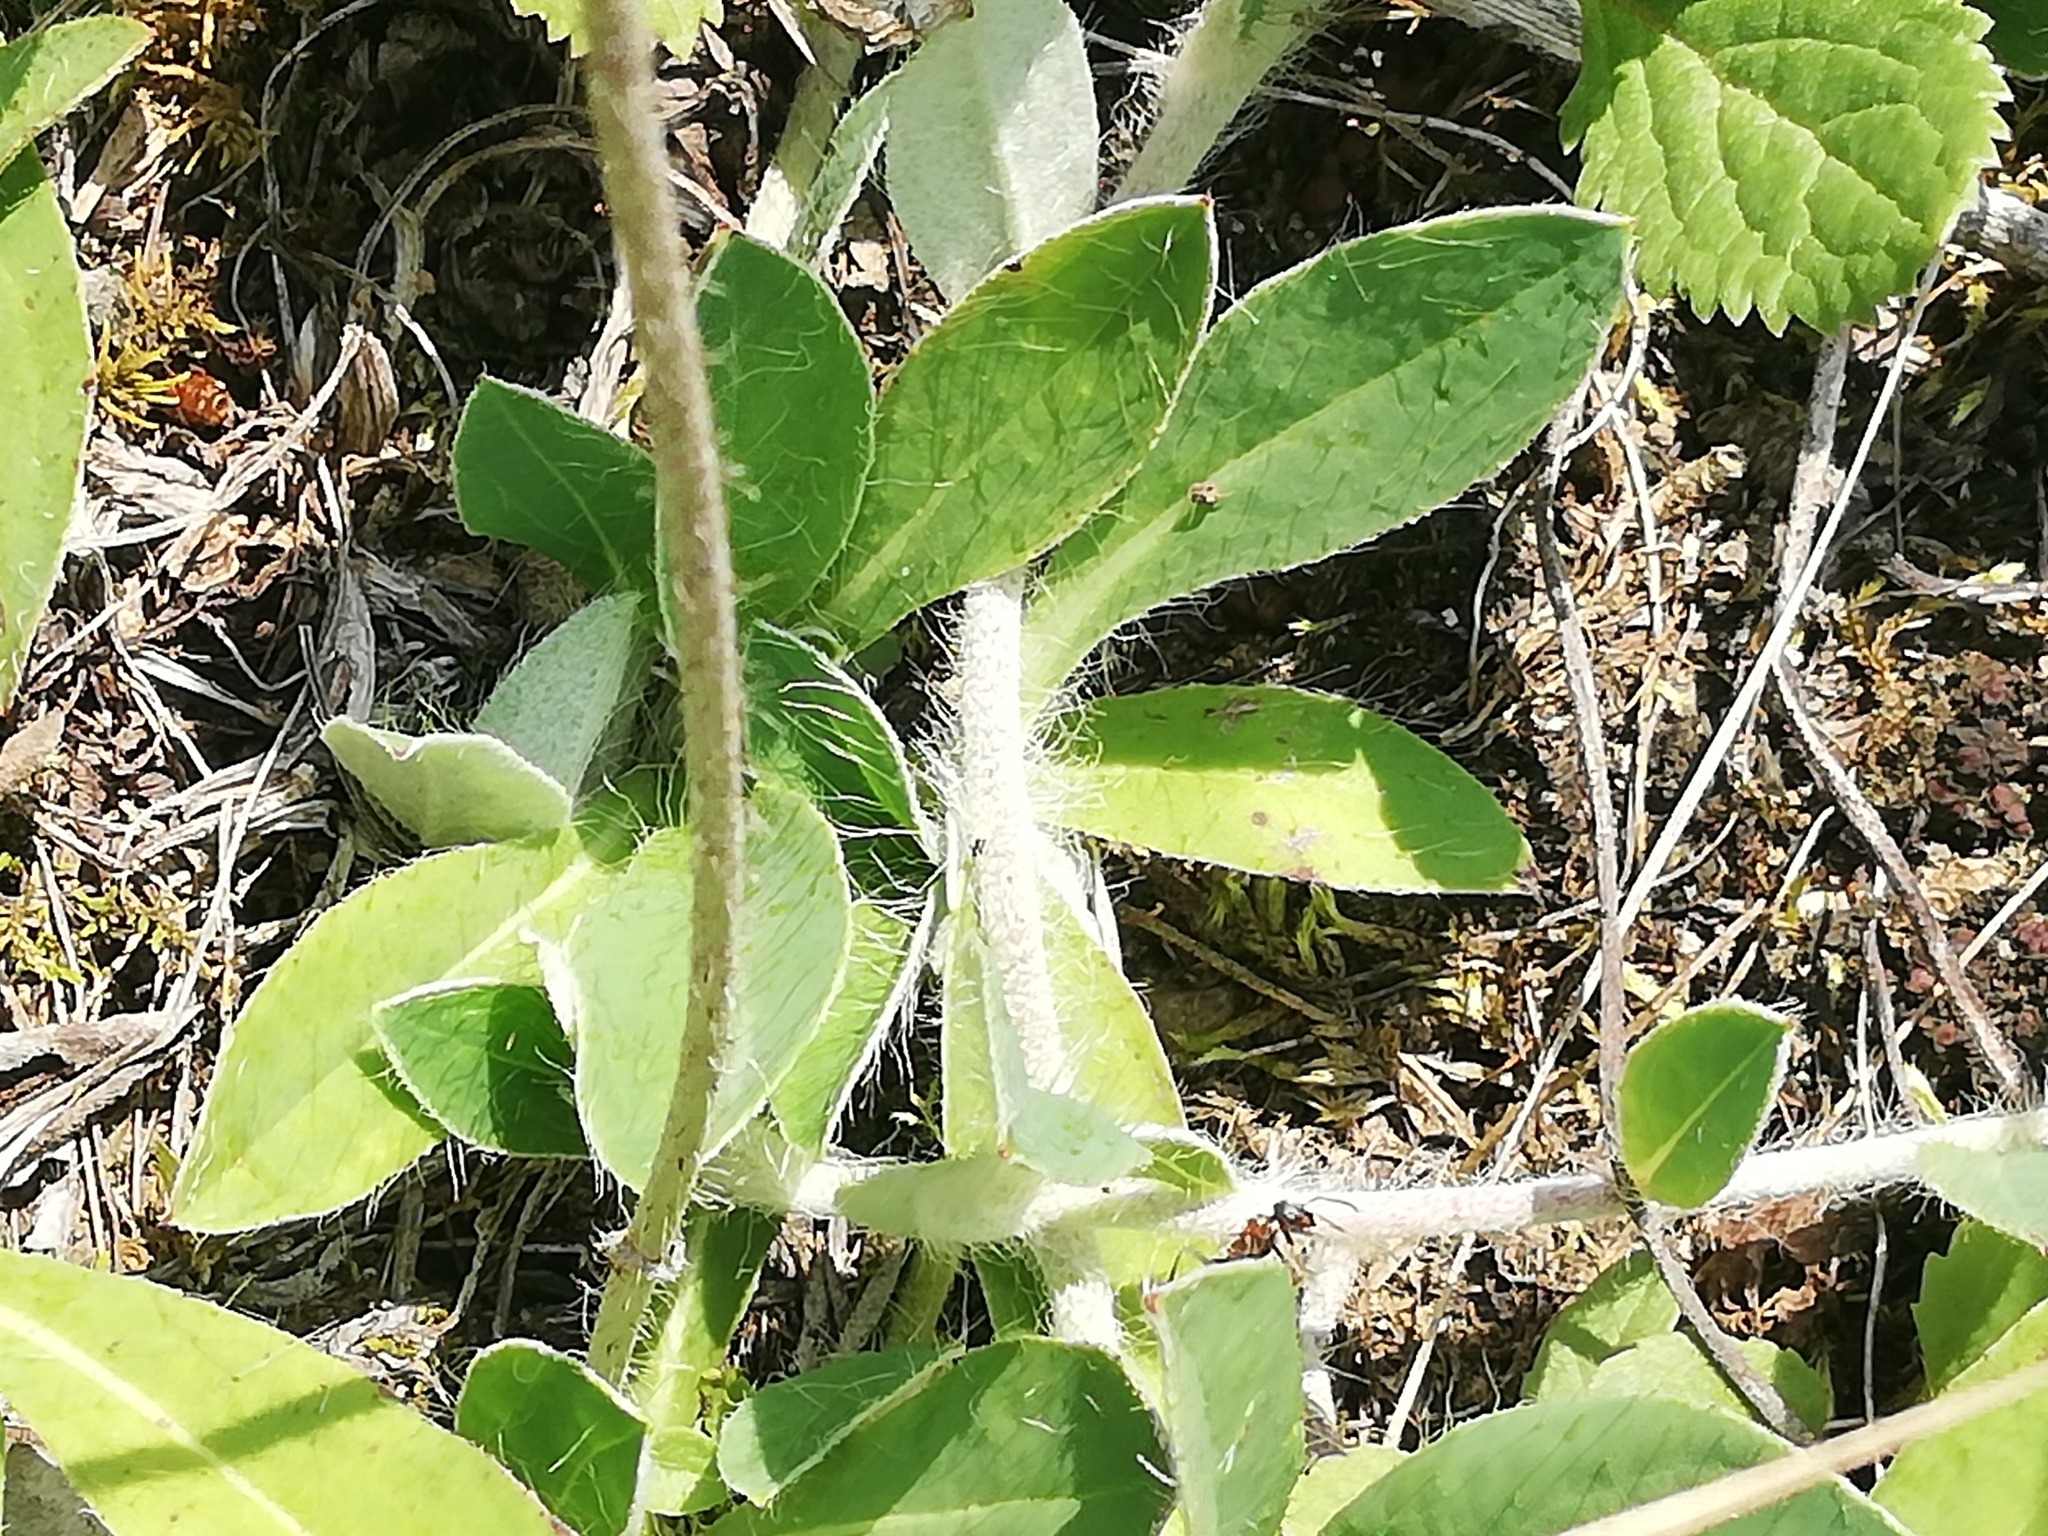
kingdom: Plantae
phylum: Tracheophyta
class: Magnoliopsida
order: Asterales
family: Asteraceae
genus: Pilosella
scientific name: Pilosella officinarum
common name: Mouse-ear hawkweed
